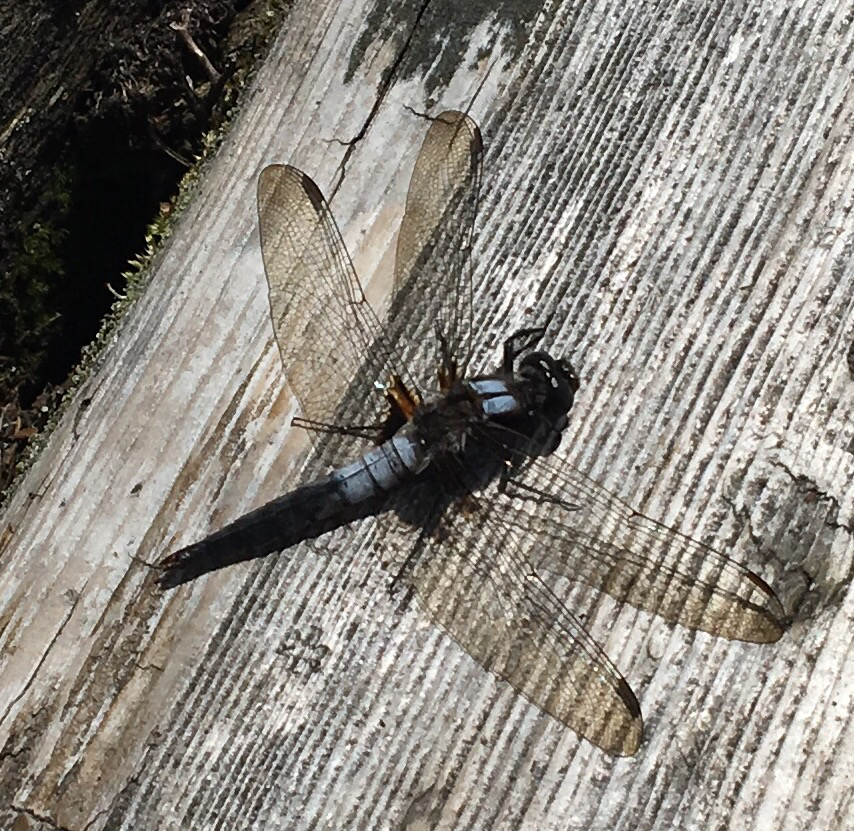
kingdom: Animalia
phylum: Arthropoda
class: Insecta
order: Odonata
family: Libellulidae
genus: Ladona
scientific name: Ladona julia
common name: Chalk-fronted corporal
